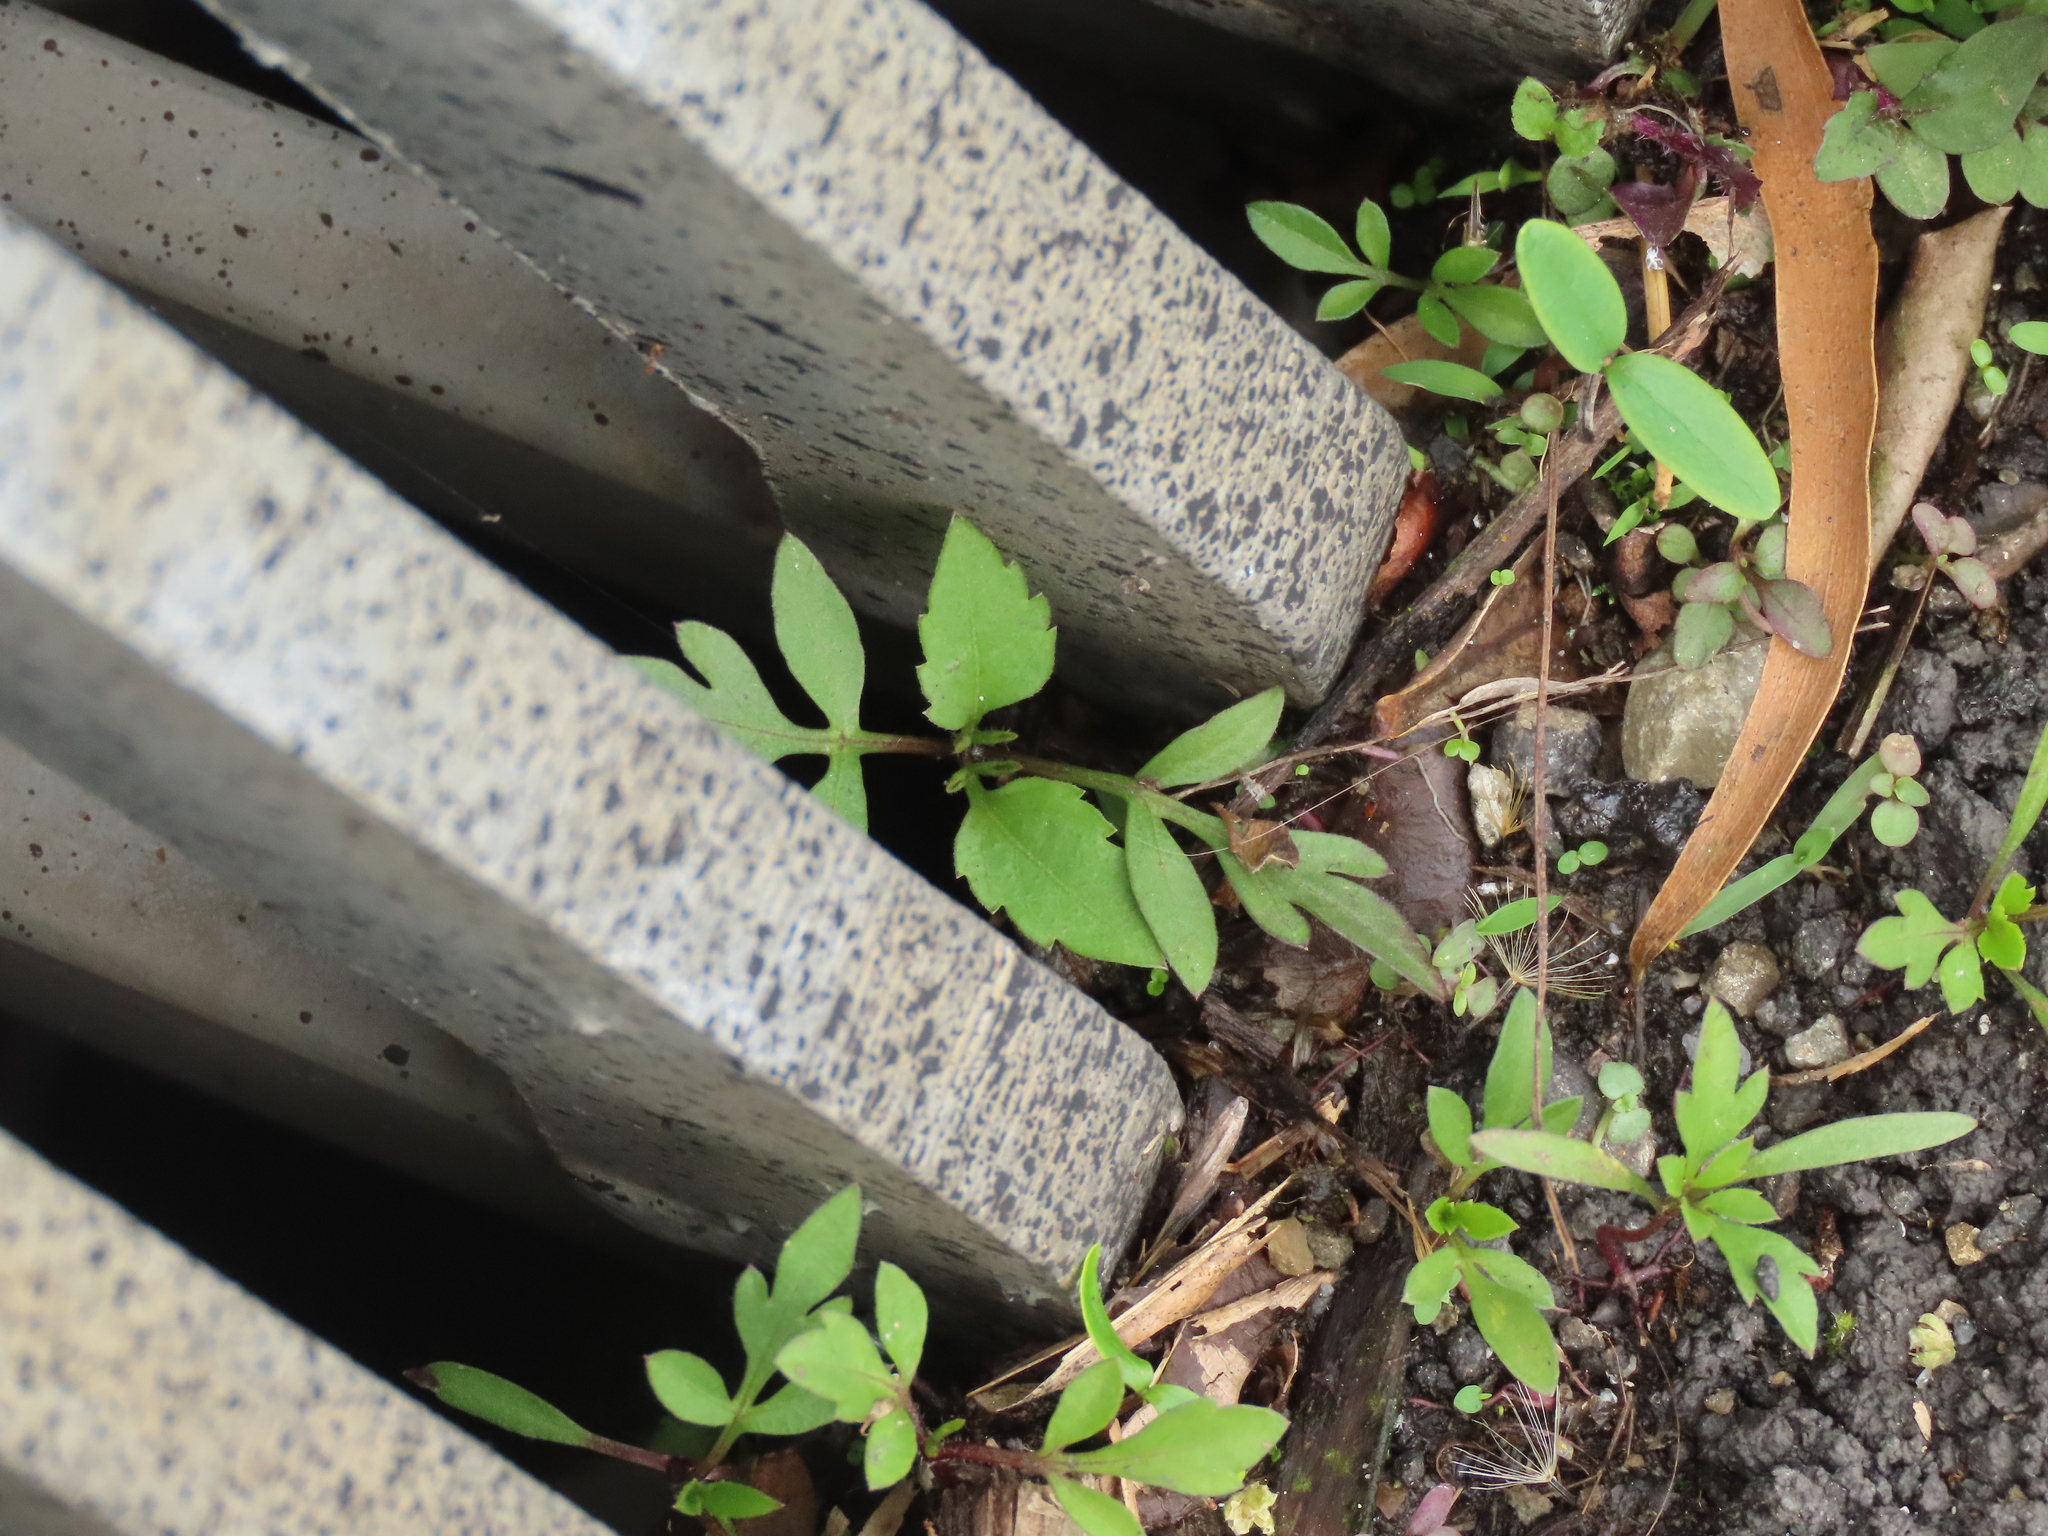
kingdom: Plantae
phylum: Tracheophyta
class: Magnoliopsida
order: Asterales
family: Asteraceae
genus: Bidens
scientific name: Bidens alba
